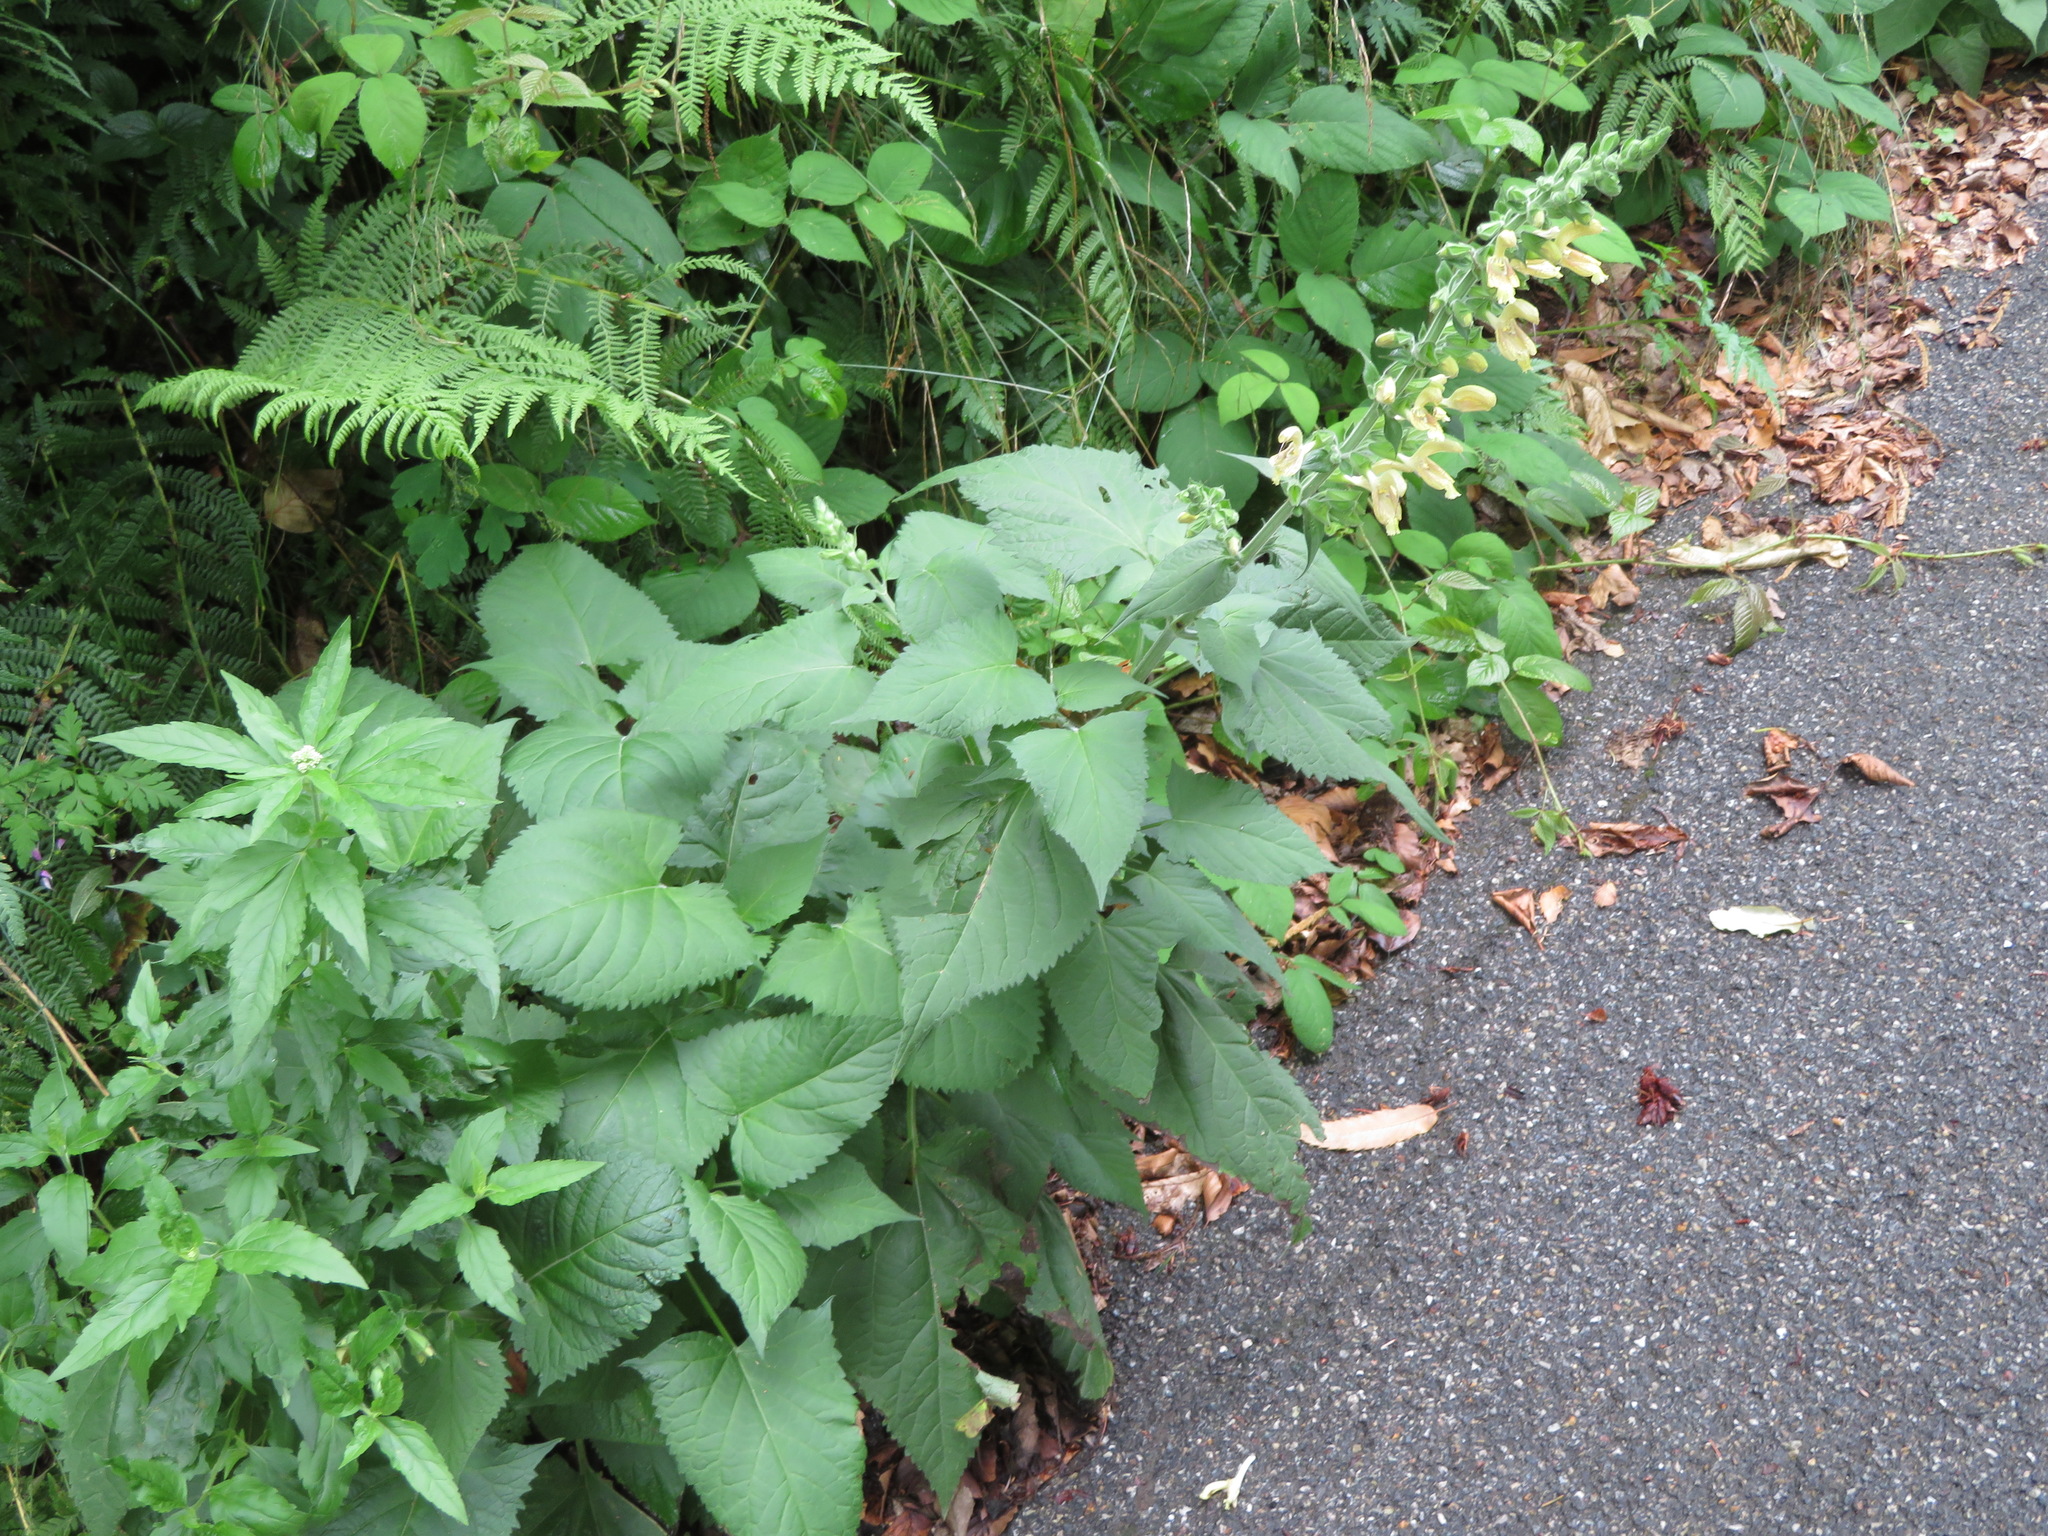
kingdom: Plantae
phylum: Tracheophyta
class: Magnoliopsida
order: Lamiales
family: Lamiaceae
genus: Salvia
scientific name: Salvia glutinosa
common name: Sticky clary
